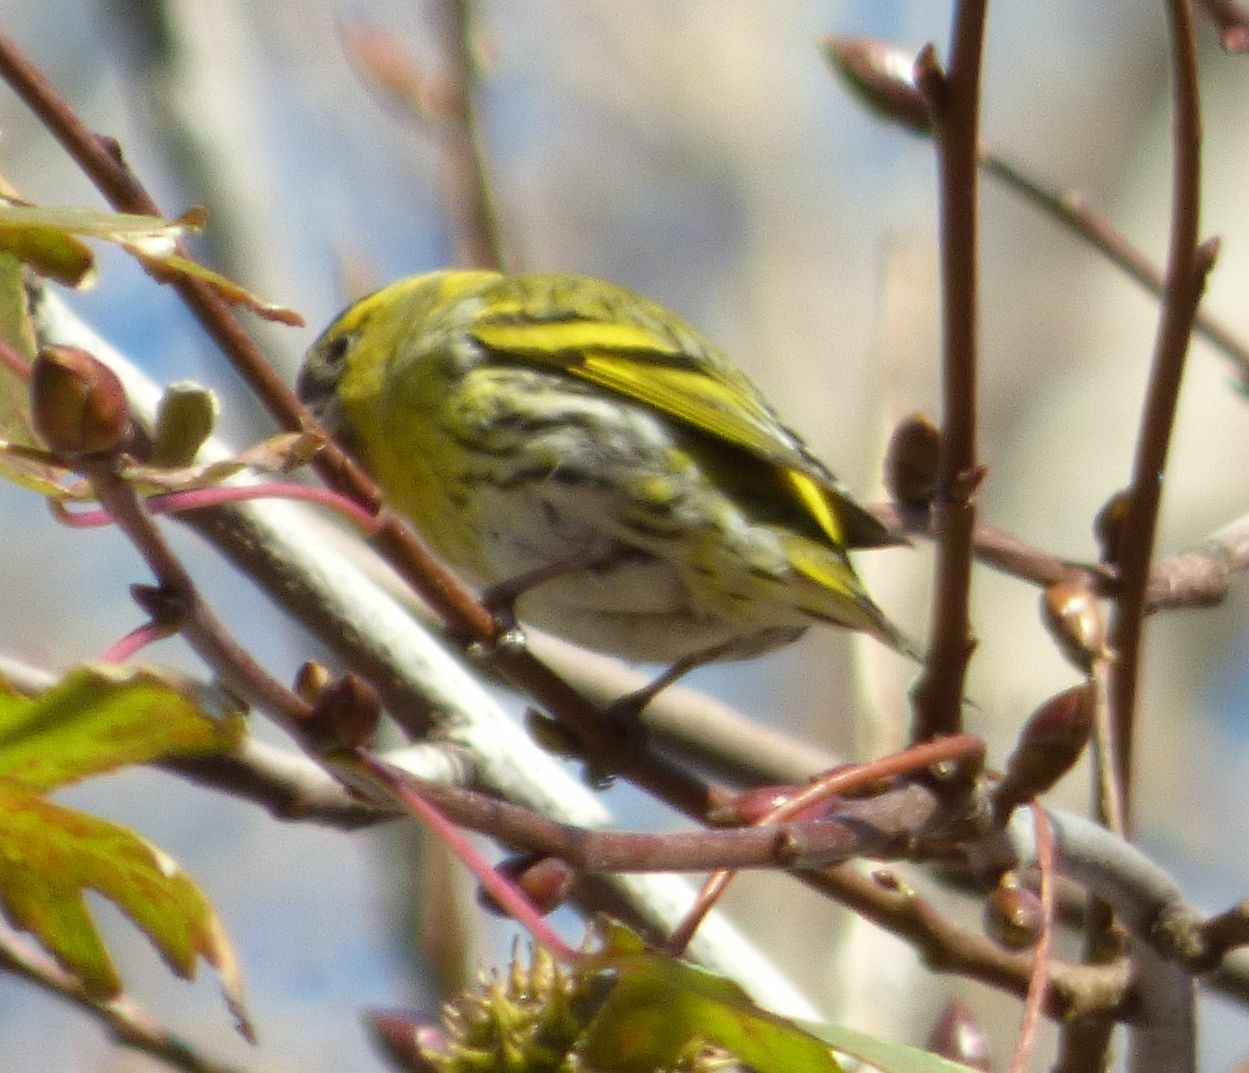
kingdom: Animalia
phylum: Chordata
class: Aves
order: Passeriformes
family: Fringillidae
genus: Spinus
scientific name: Spinus spinus
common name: Eurasian siskin
